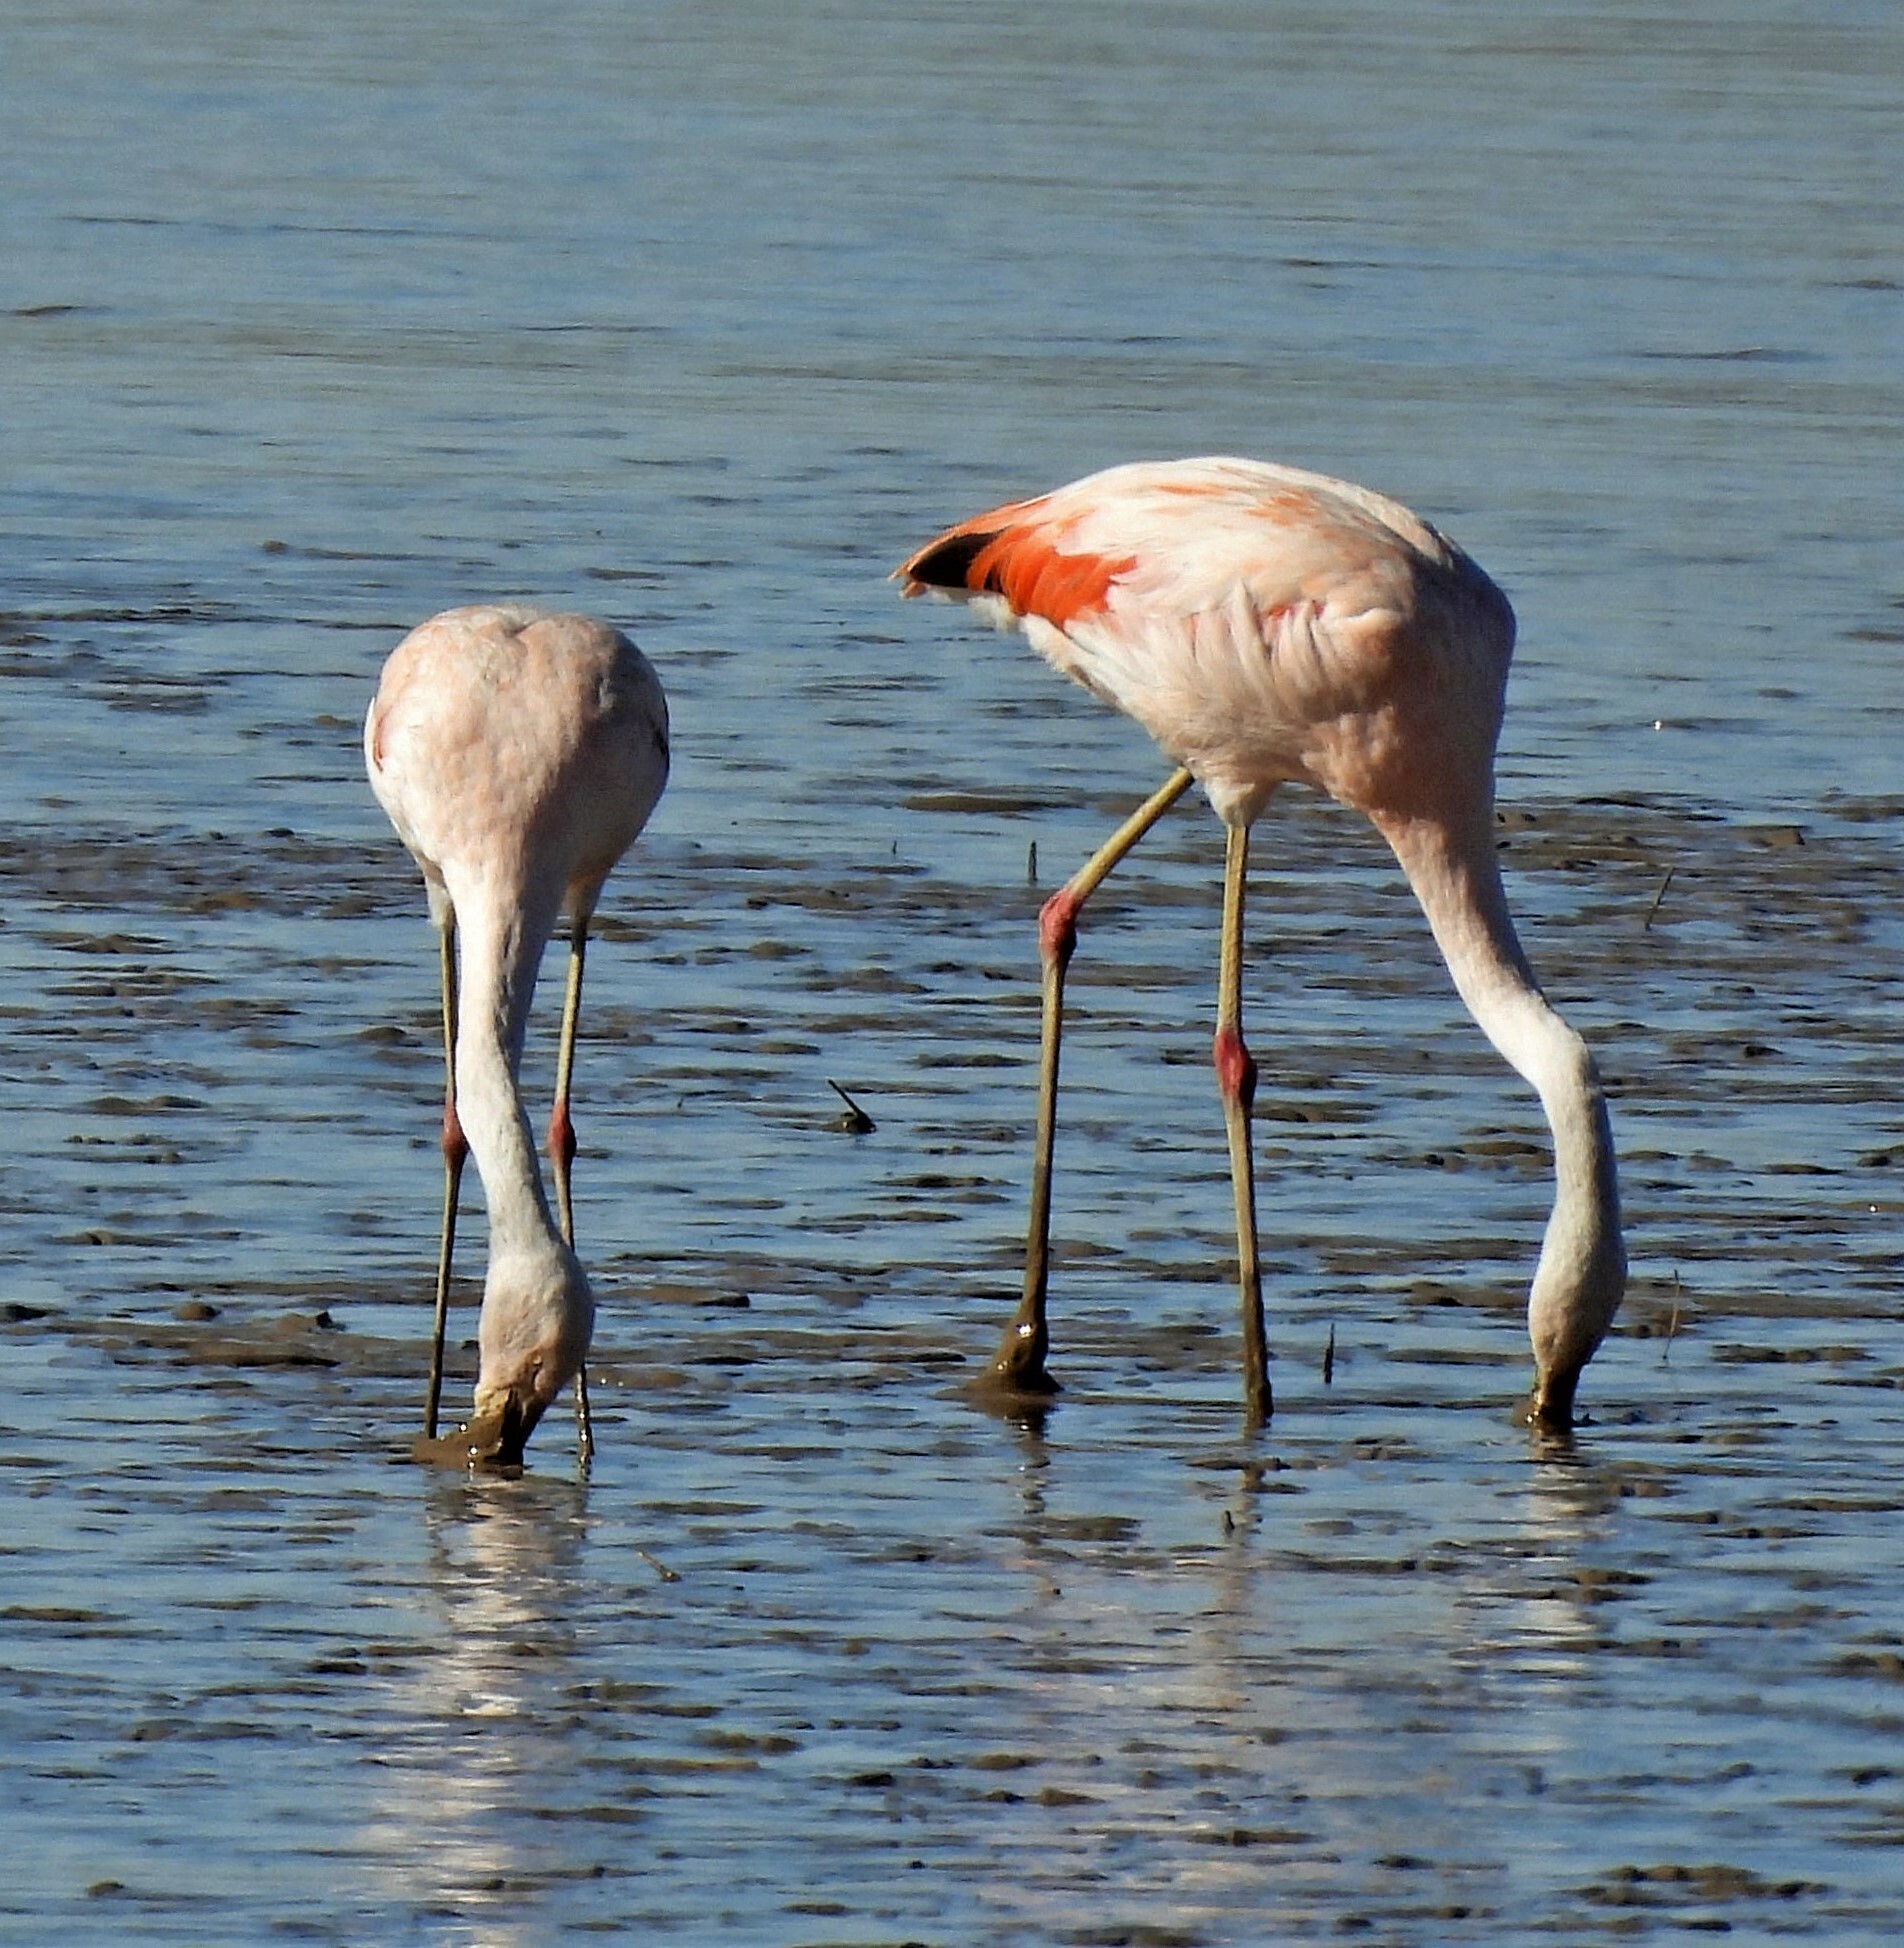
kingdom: Animalia
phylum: Chordata
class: Aves
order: Phoenicopteriformes
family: Phoenicopteridae
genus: Phoenicopterus
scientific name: Phoenicopterus chilensis
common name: Chilean flamingo
